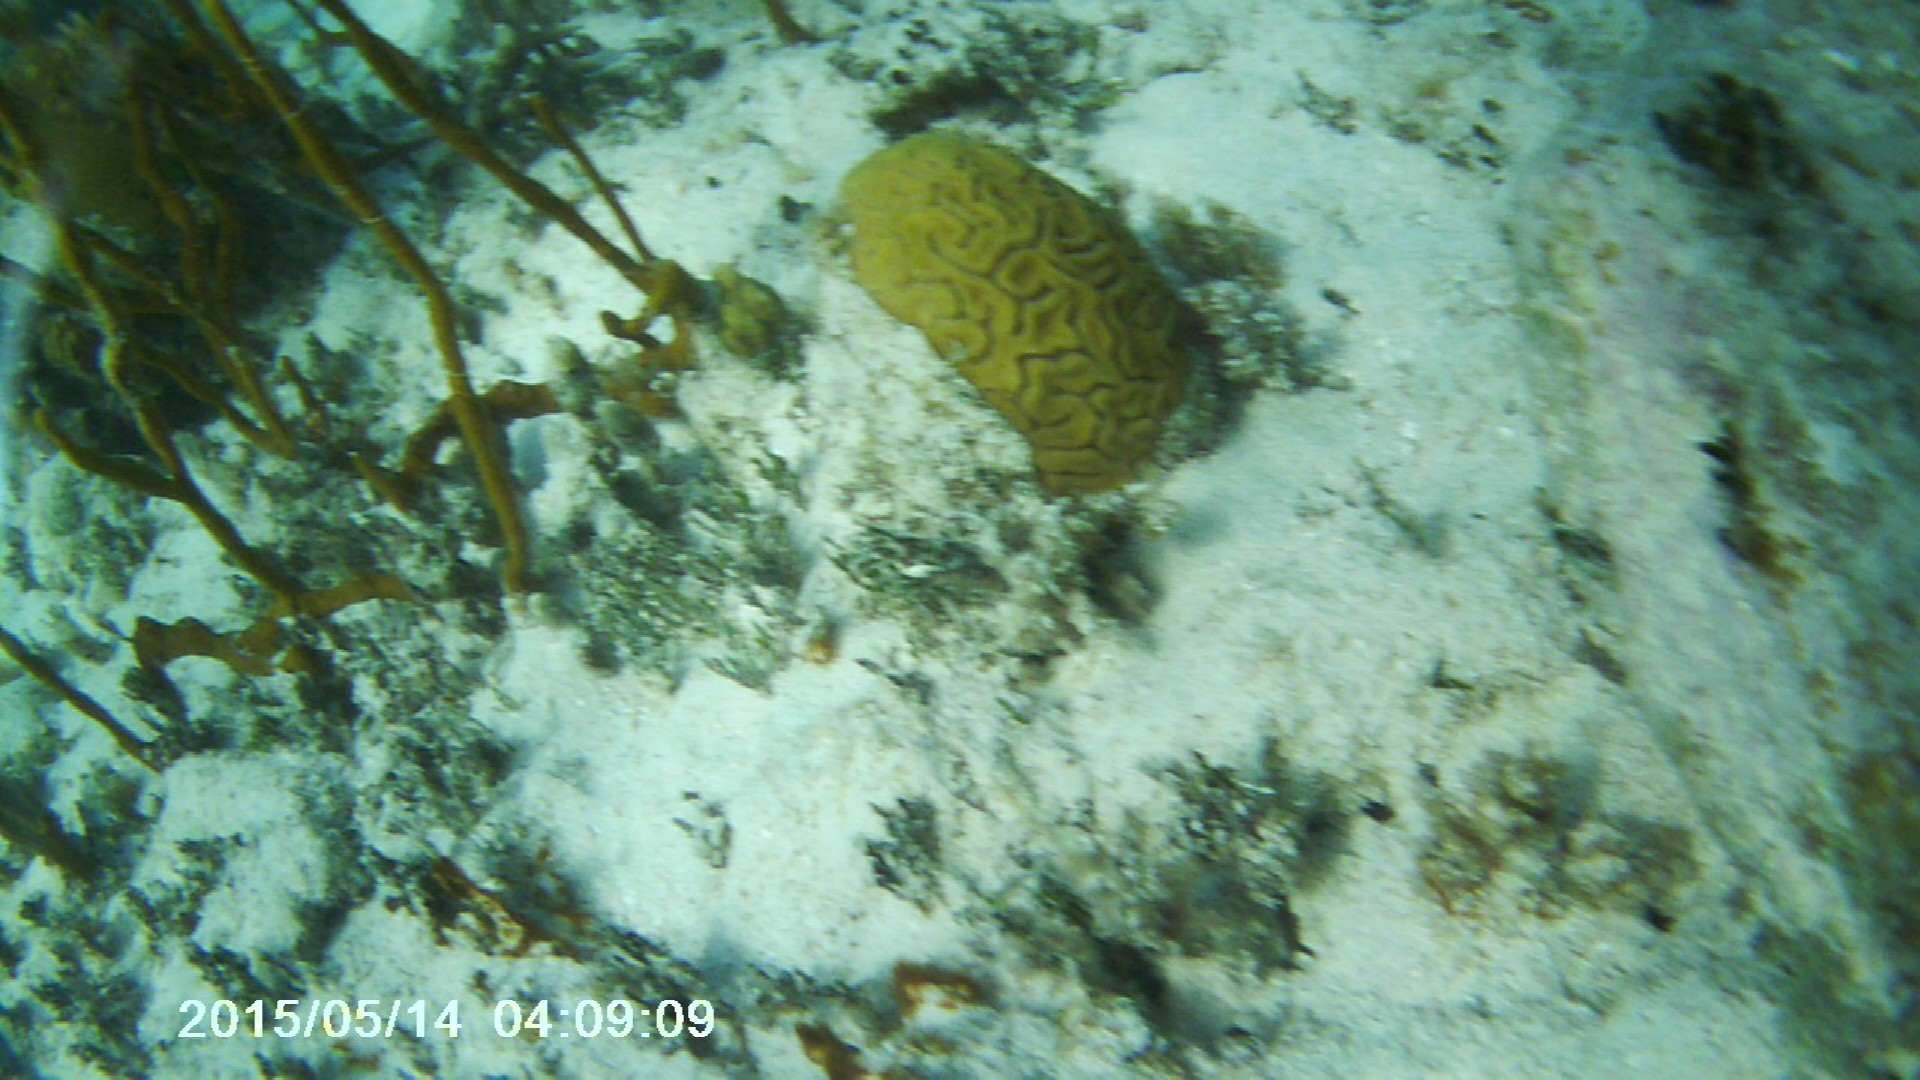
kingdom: Animalia
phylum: Cnidaria
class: Anthozoa
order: Scleractinia
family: Faviidae
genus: Diploria
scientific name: Diploria labyrinthiformis
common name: Grooved brain coral
